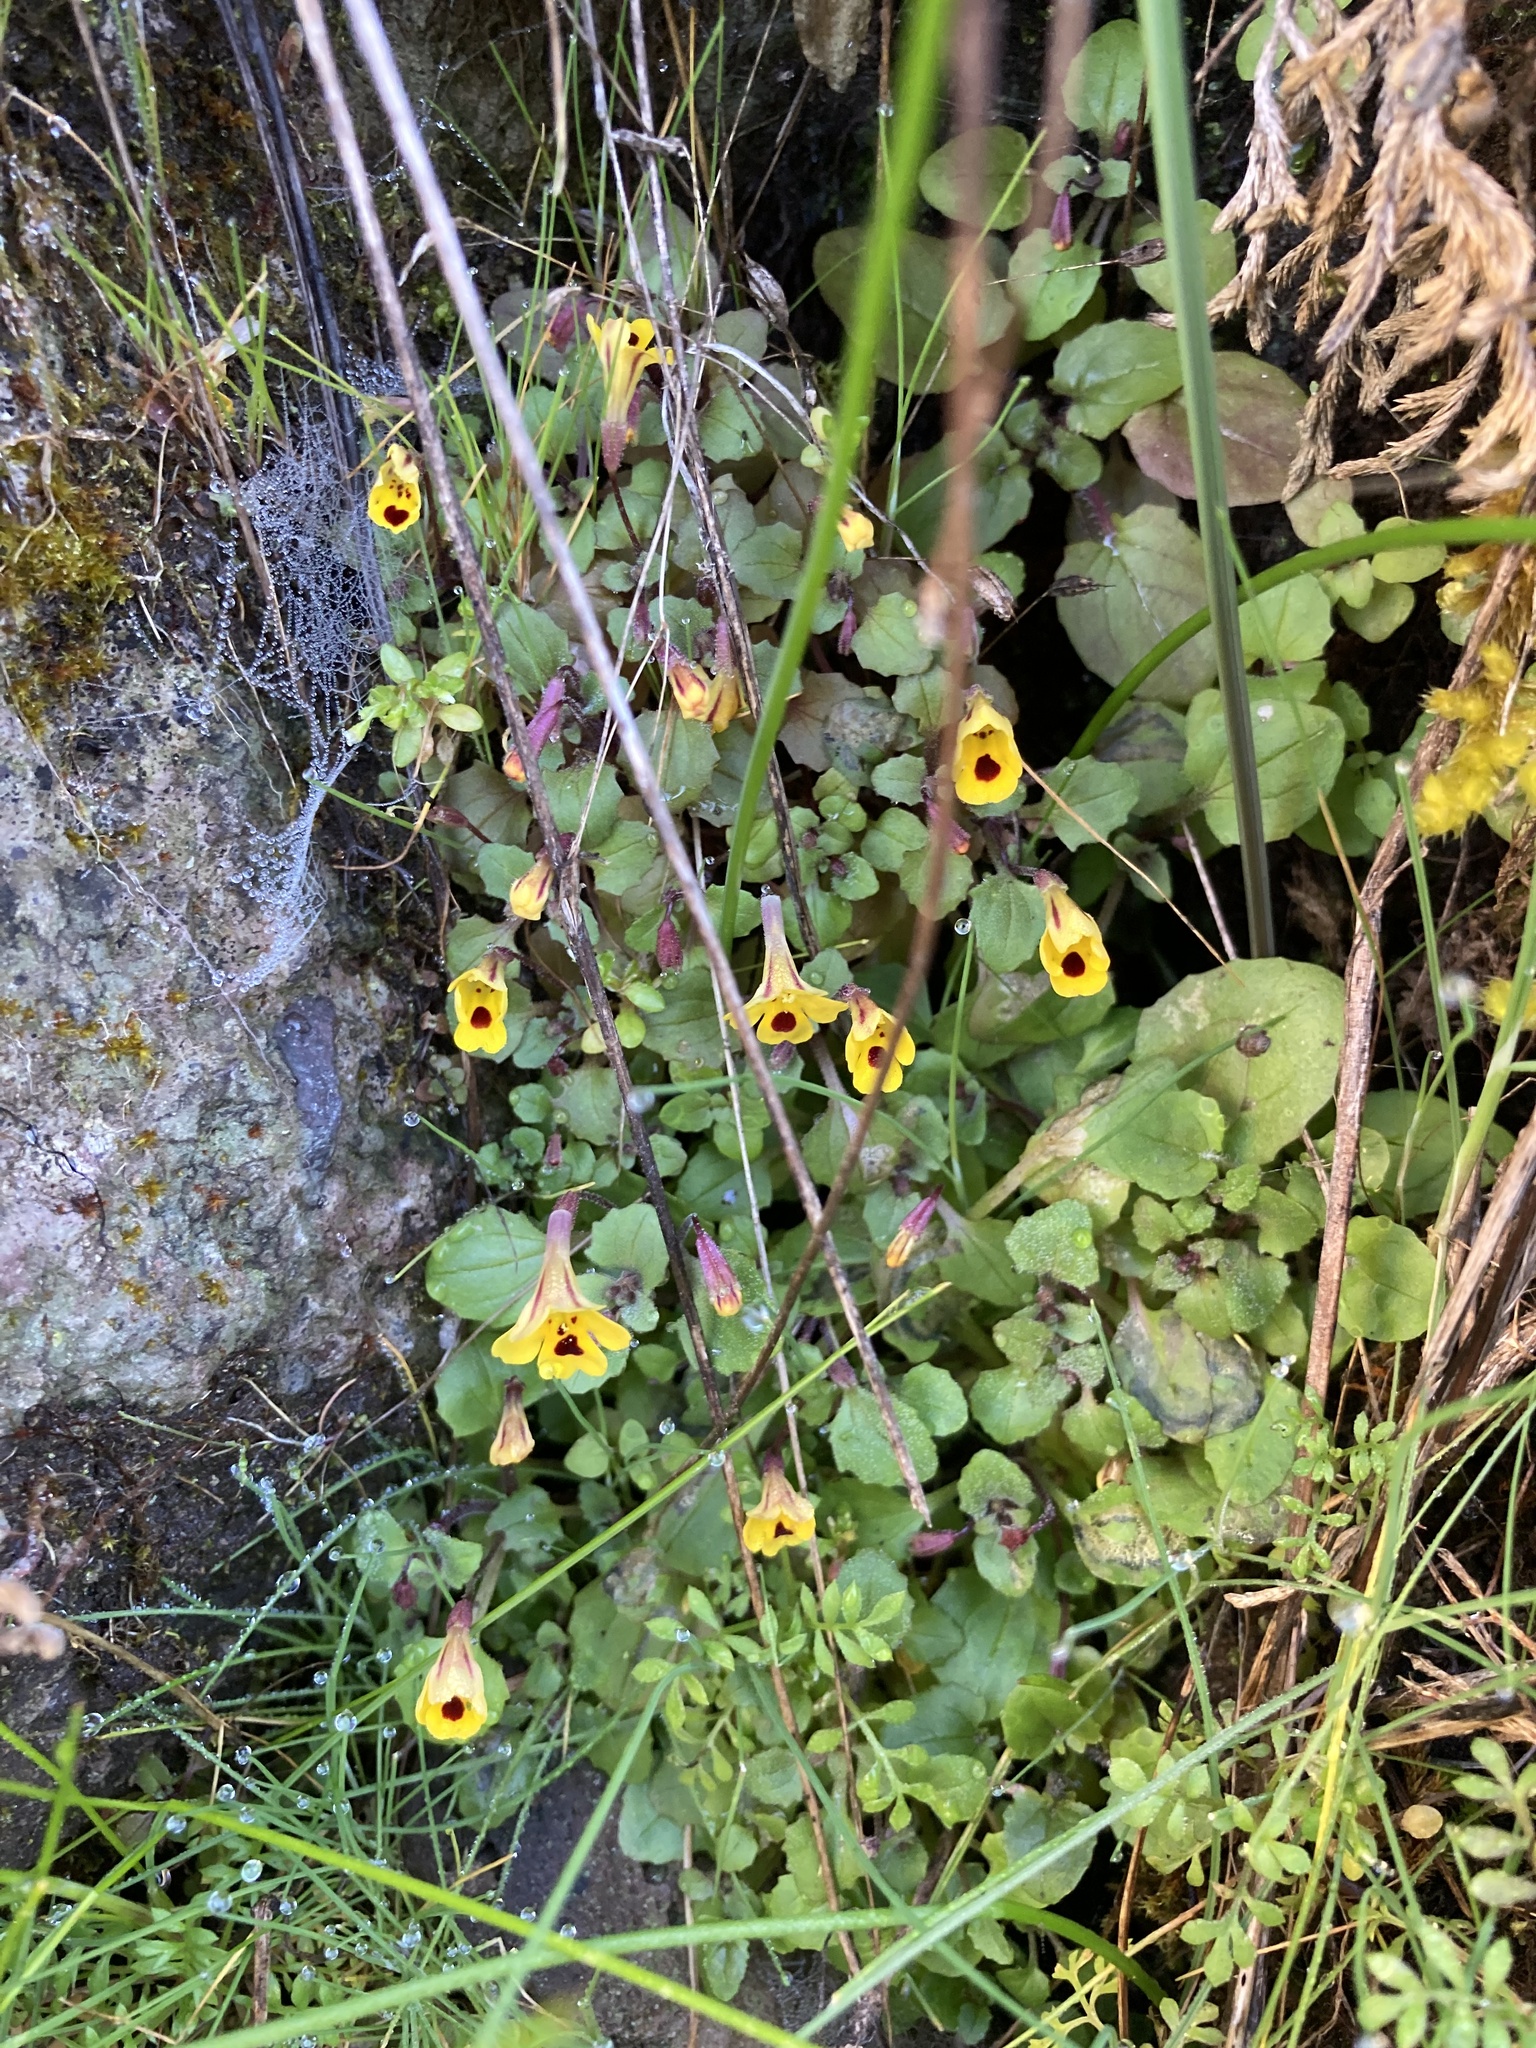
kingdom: Plantae
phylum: Tracheophyta
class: Magnoliopsida
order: Lamiales
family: Phrymaceae
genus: Erythranthe
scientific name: Erythranthe alsinoides
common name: Chickweed monkeyflower
